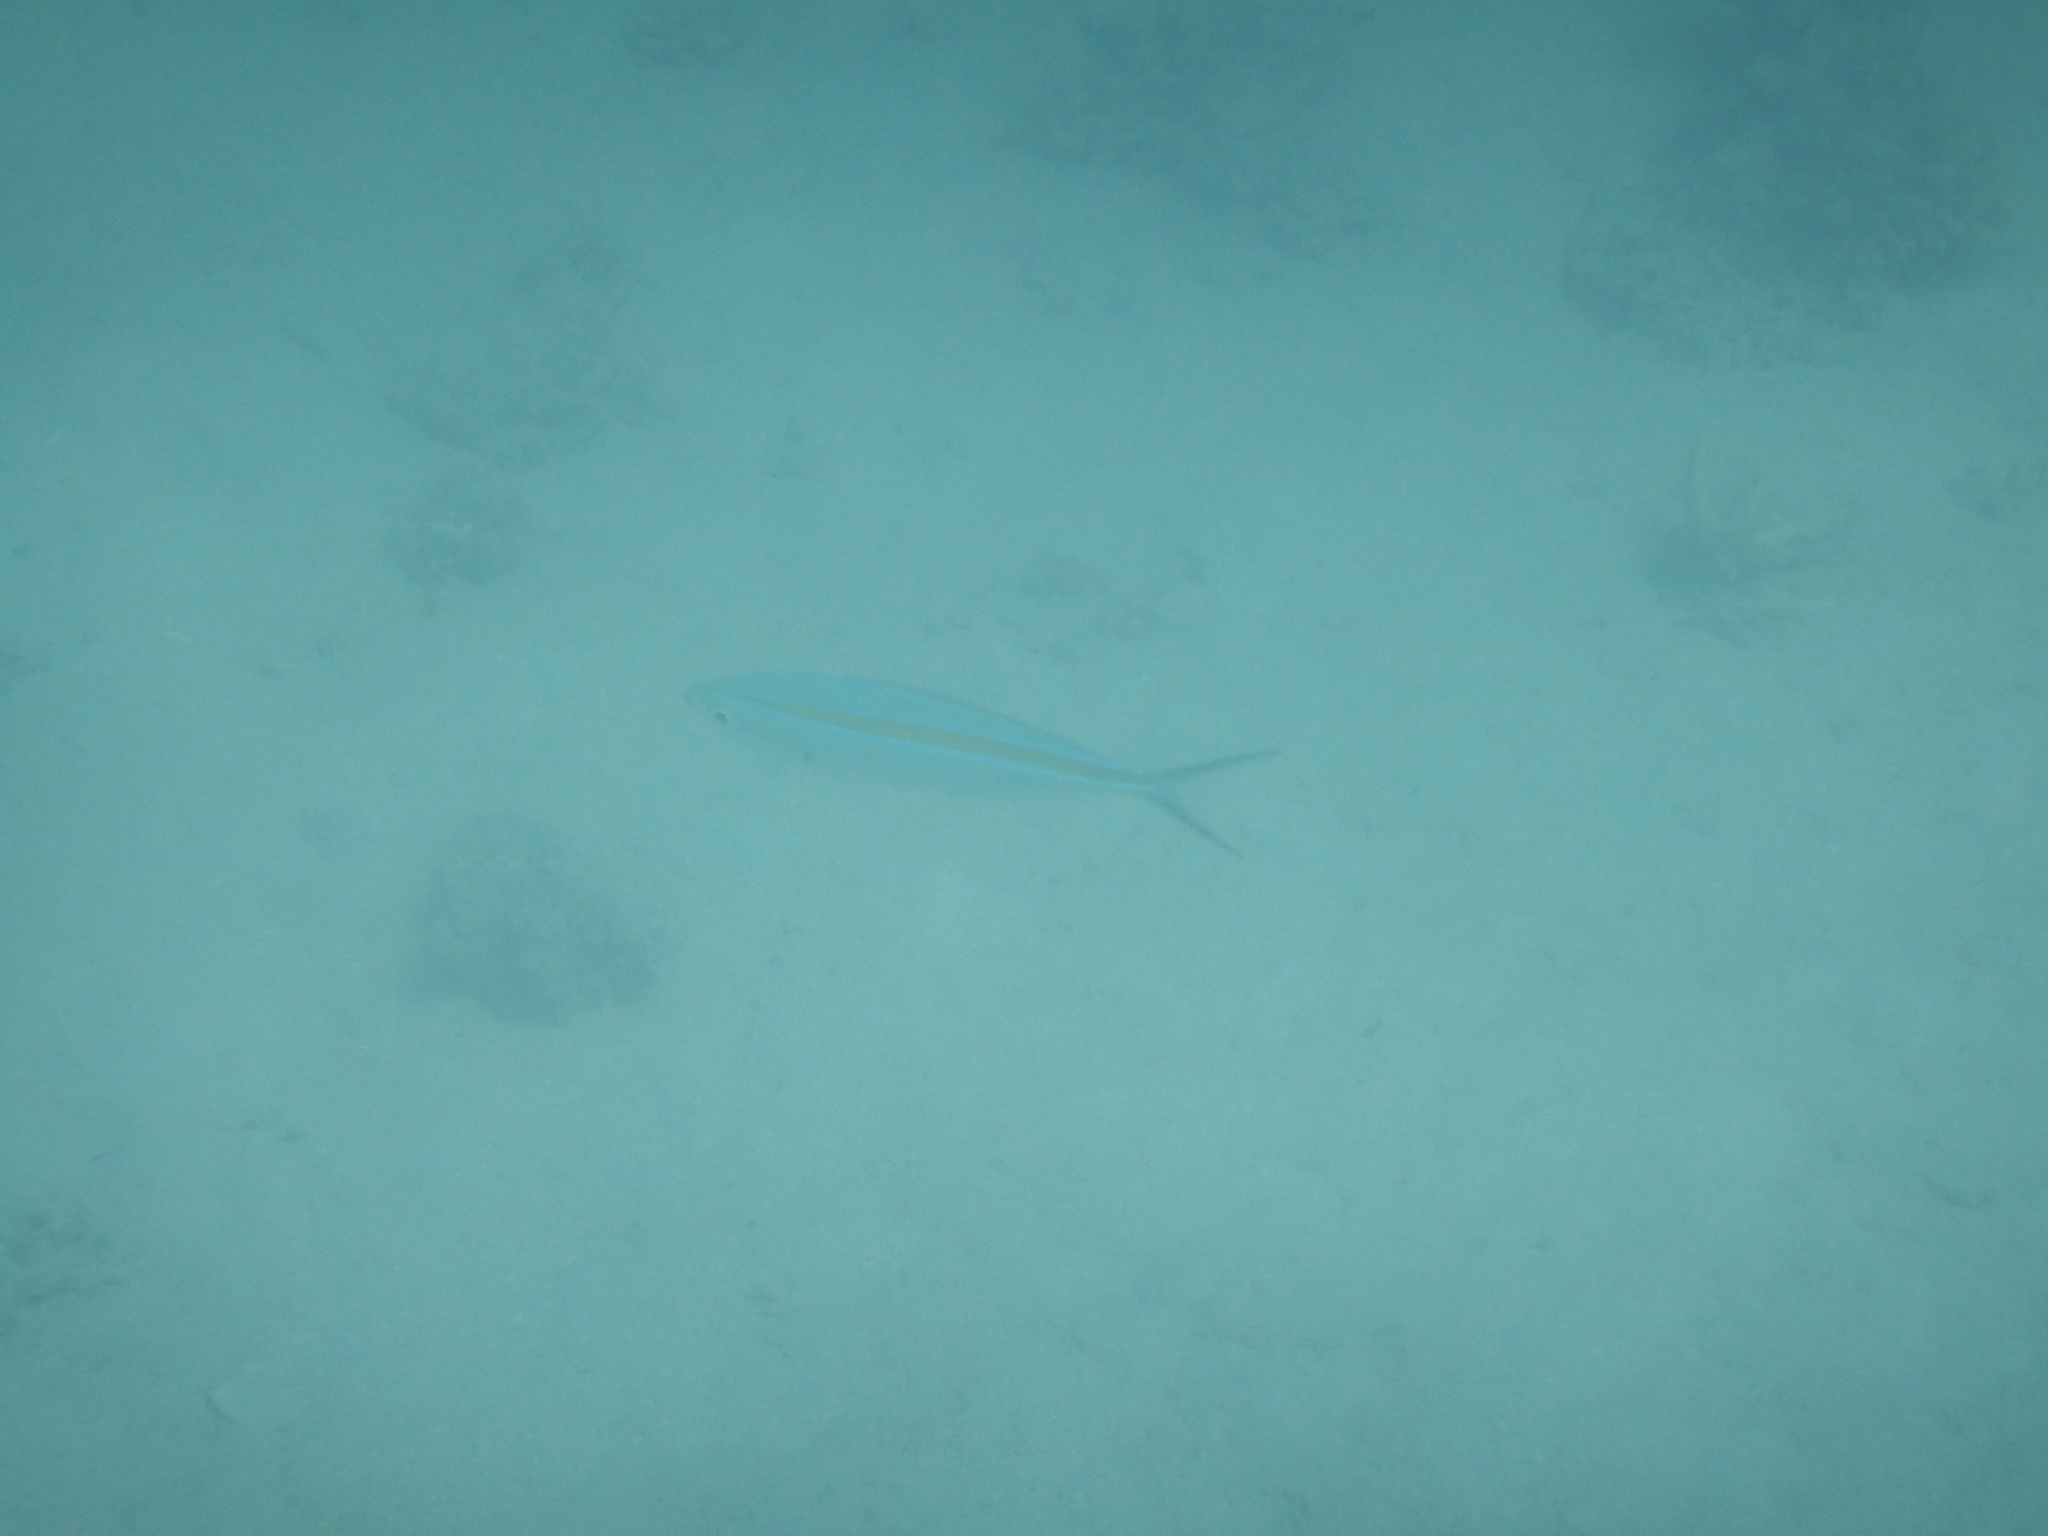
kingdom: Animalia
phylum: Chordata
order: Perciformes
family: Caesionidae
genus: Caesio
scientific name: Caesio caerulaurea
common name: Blue and gold fusilier
